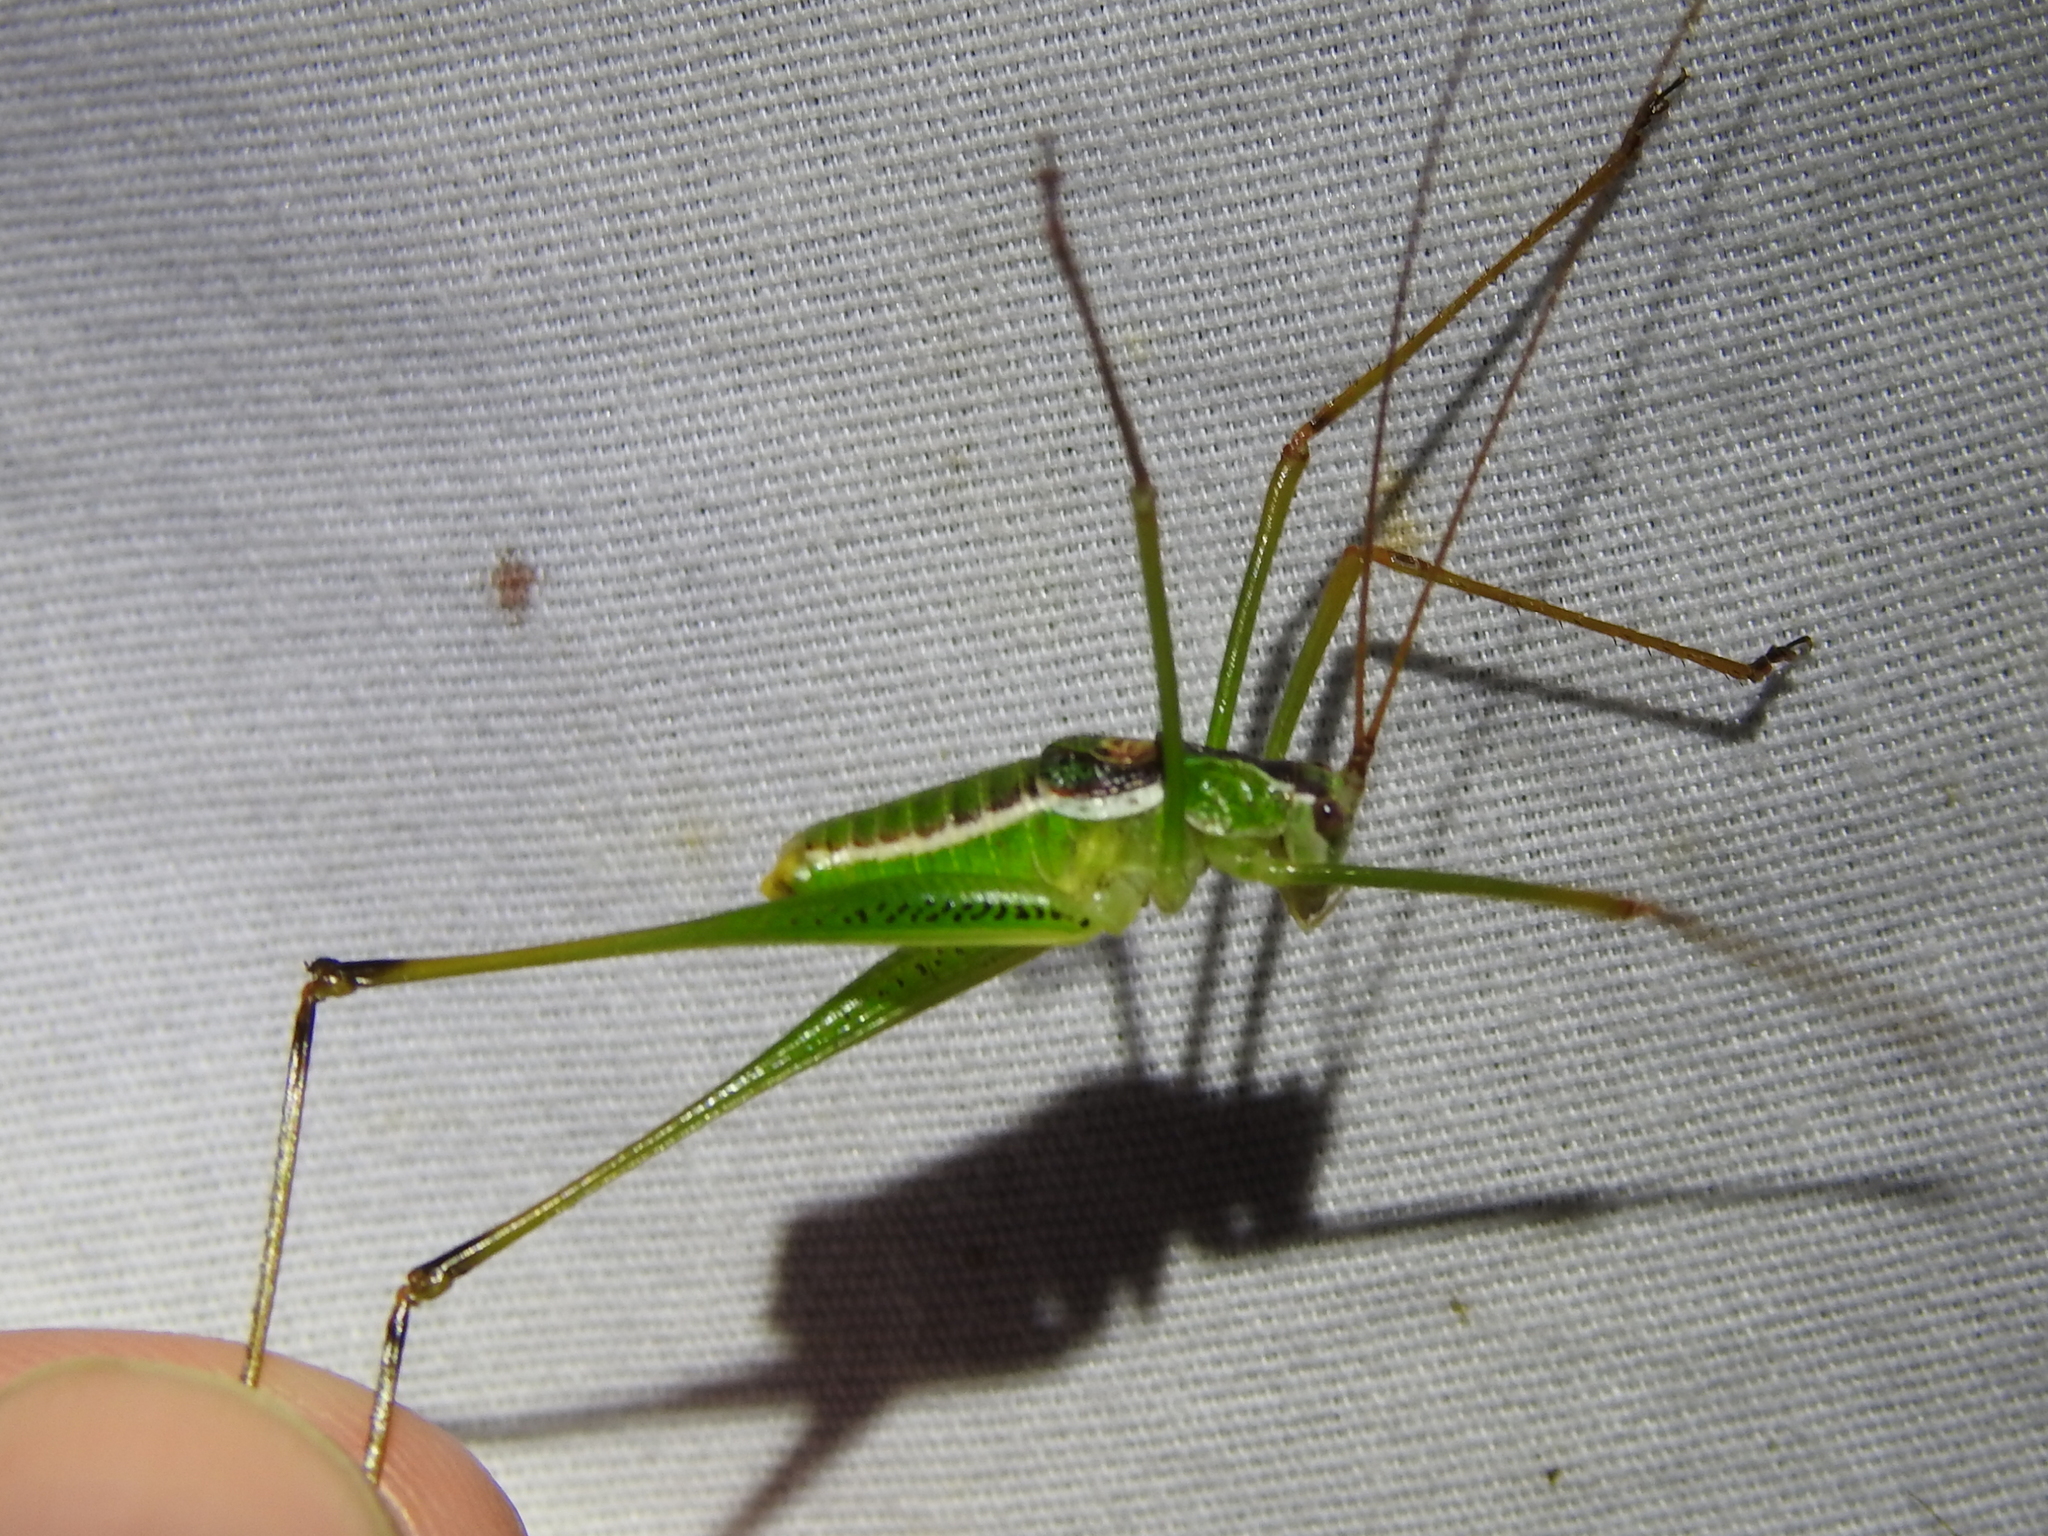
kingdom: Animalia
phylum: Arthropoda
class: Insecta
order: Orthoptera
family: Tettigoniidae
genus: Obolopteryx
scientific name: Obolopteryx castanea
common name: Chestnut short-winged katydid
